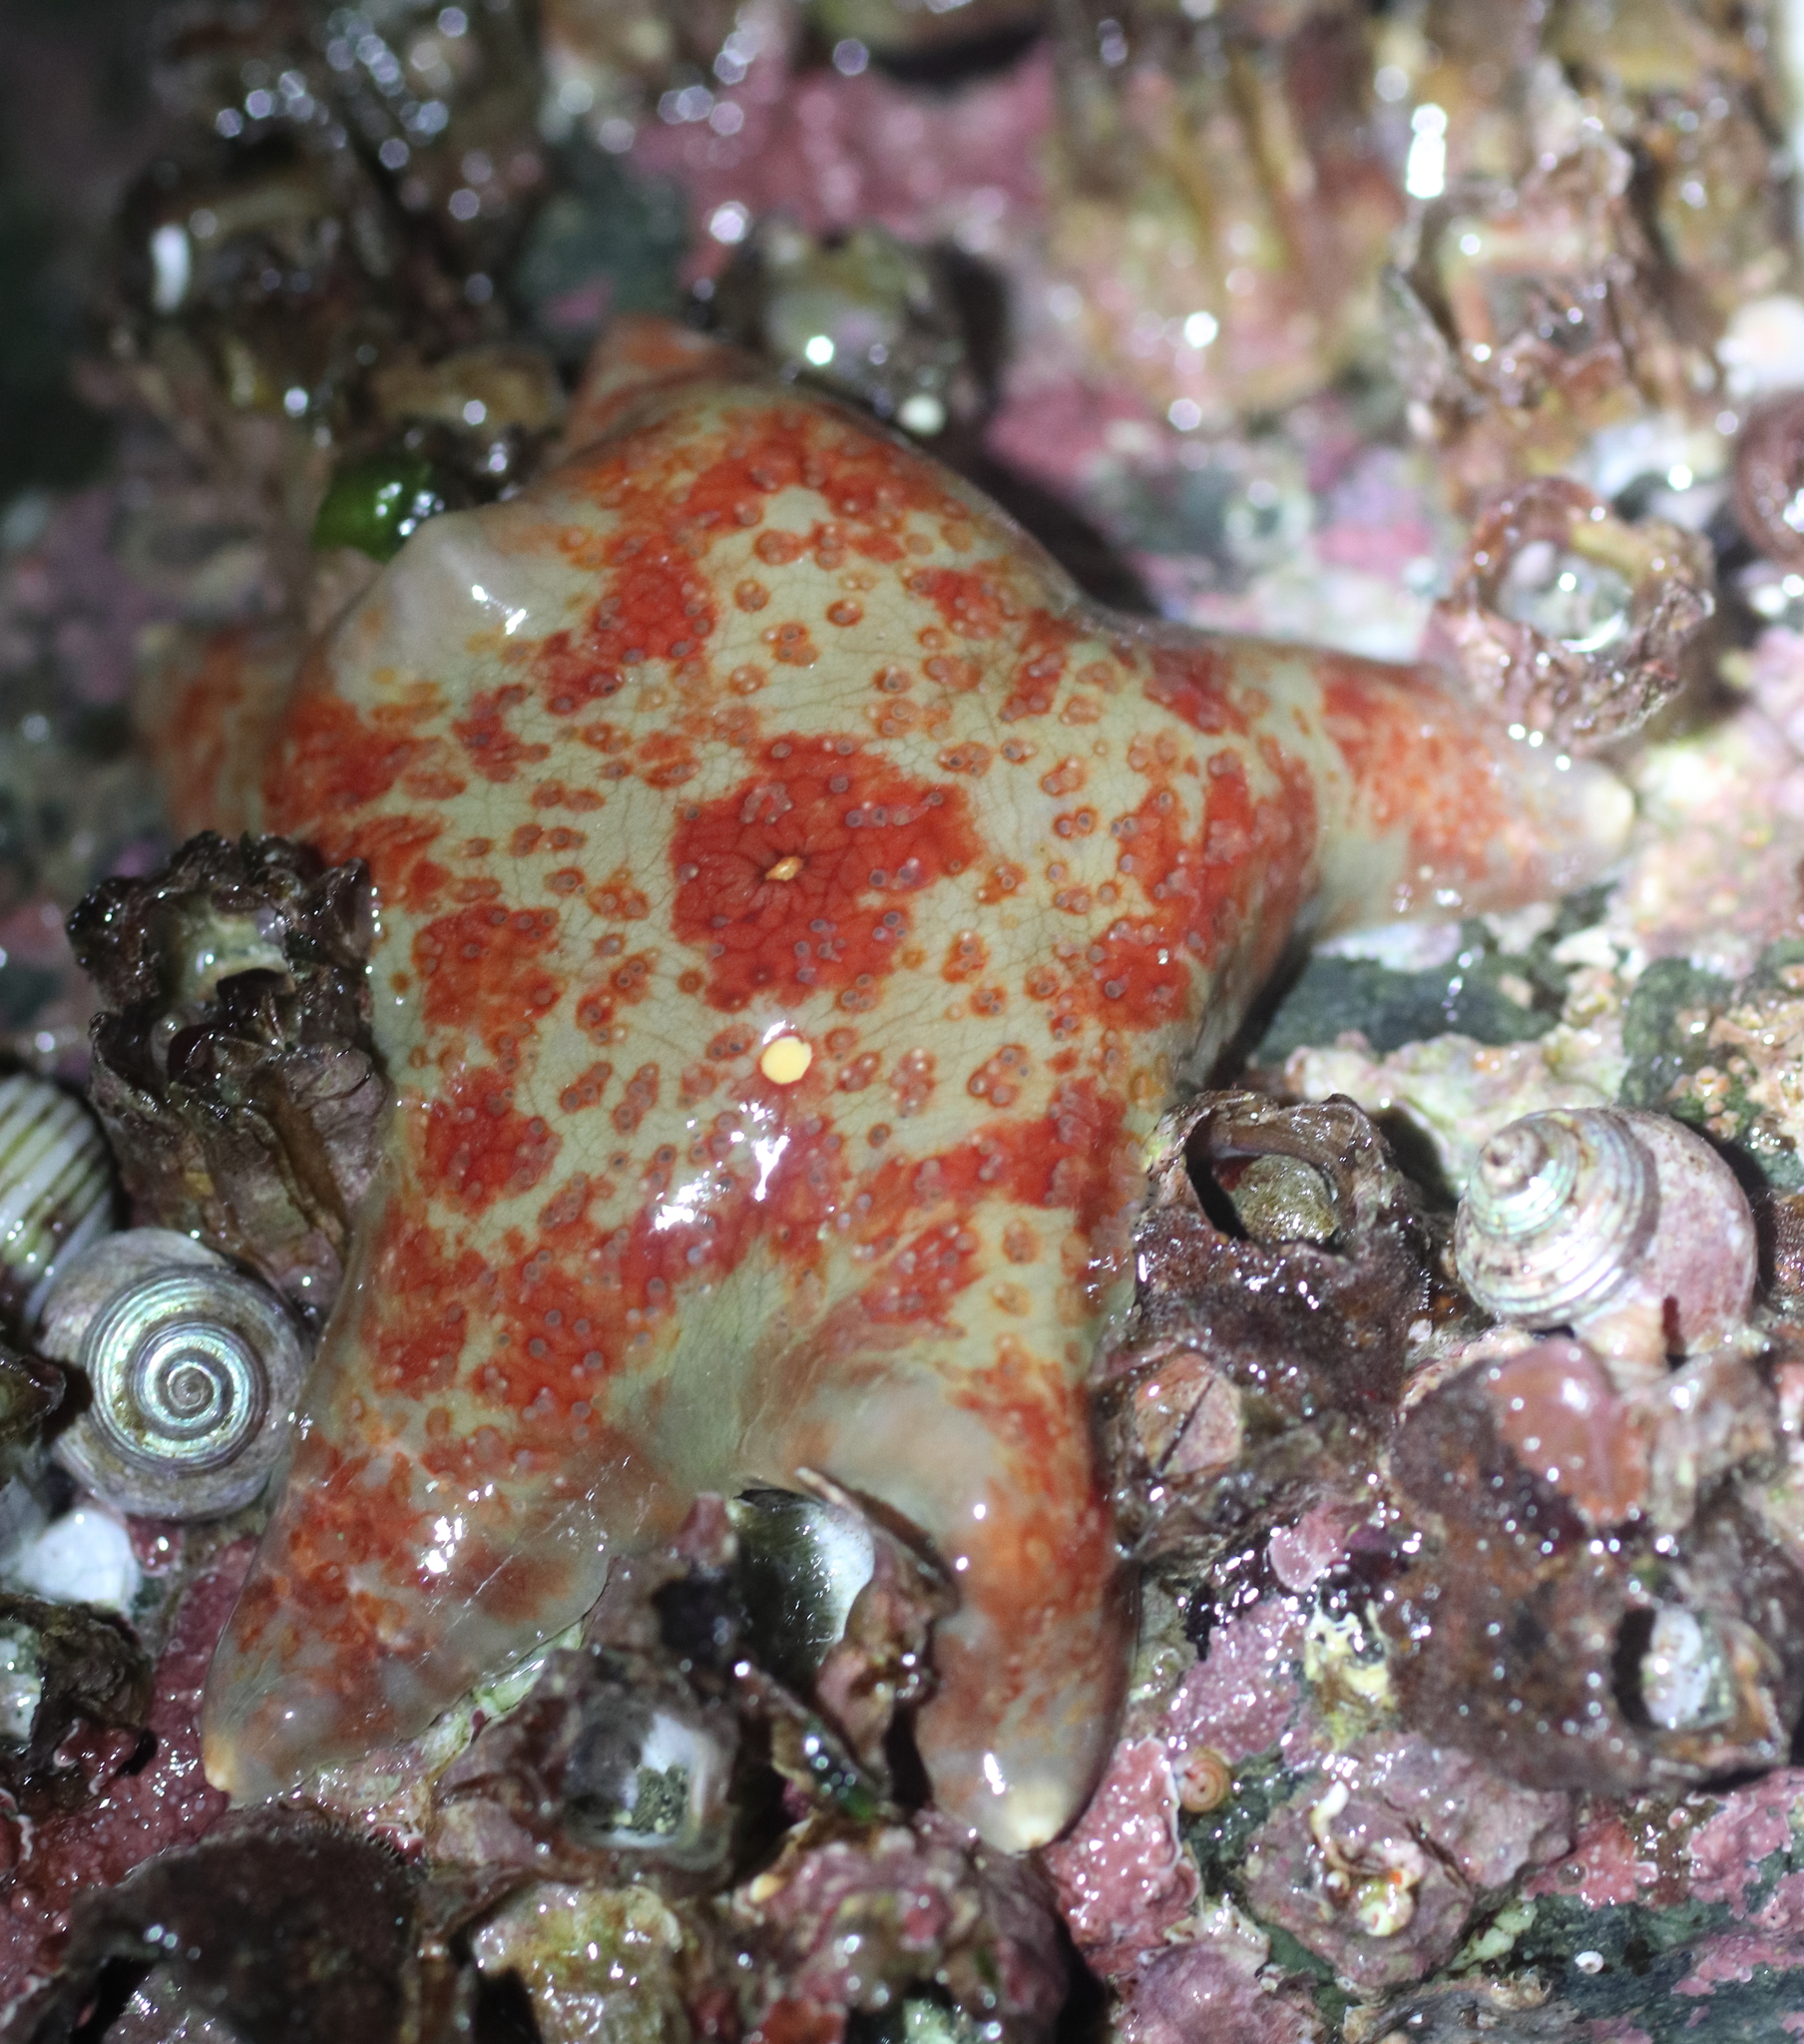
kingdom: Animalia
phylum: Echinodermata
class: Asteroidea
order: Valvatida
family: Asteropseidae
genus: Dermasterias
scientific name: Dermasterias imbricata
